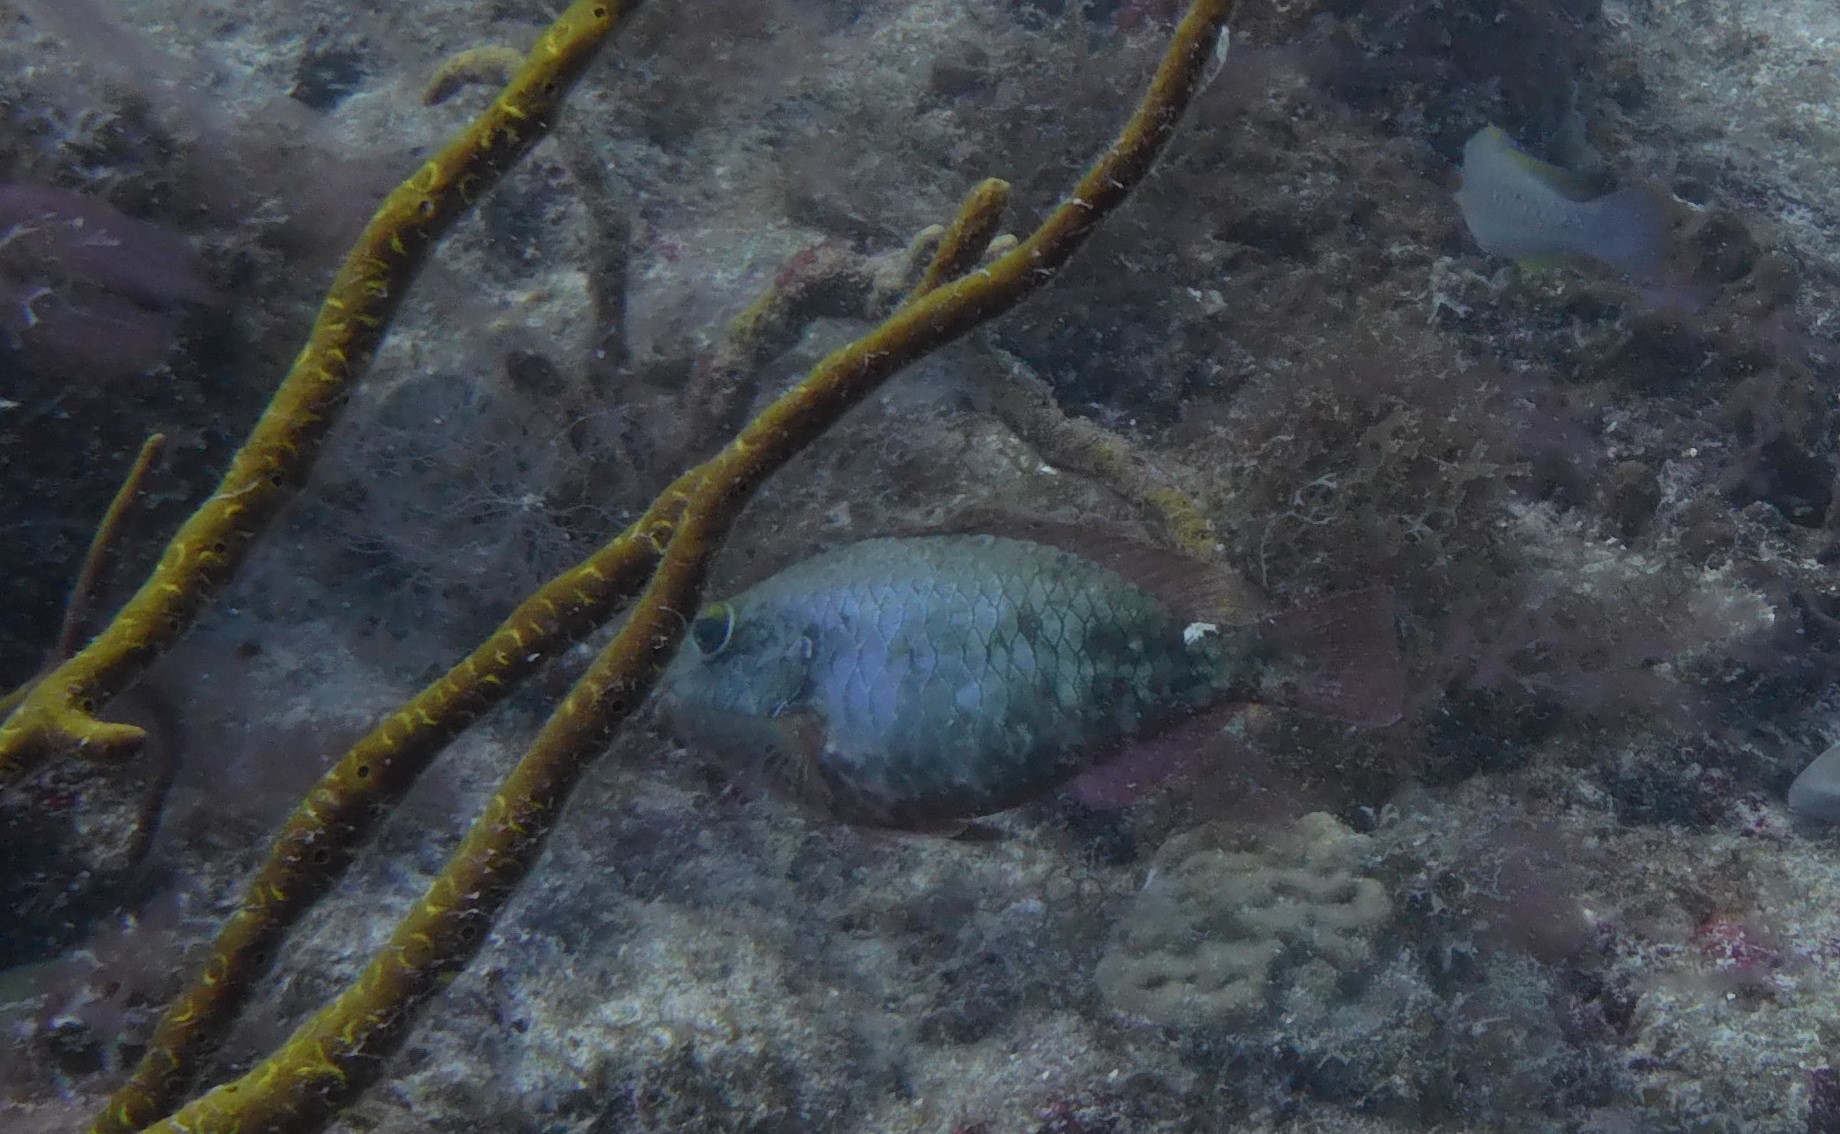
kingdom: Animalia
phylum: Chordata
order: Perciformes
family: Scaridae
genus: Sparisoma
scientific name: Sparisoma aurofrenatum
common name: Redband parrotfish
